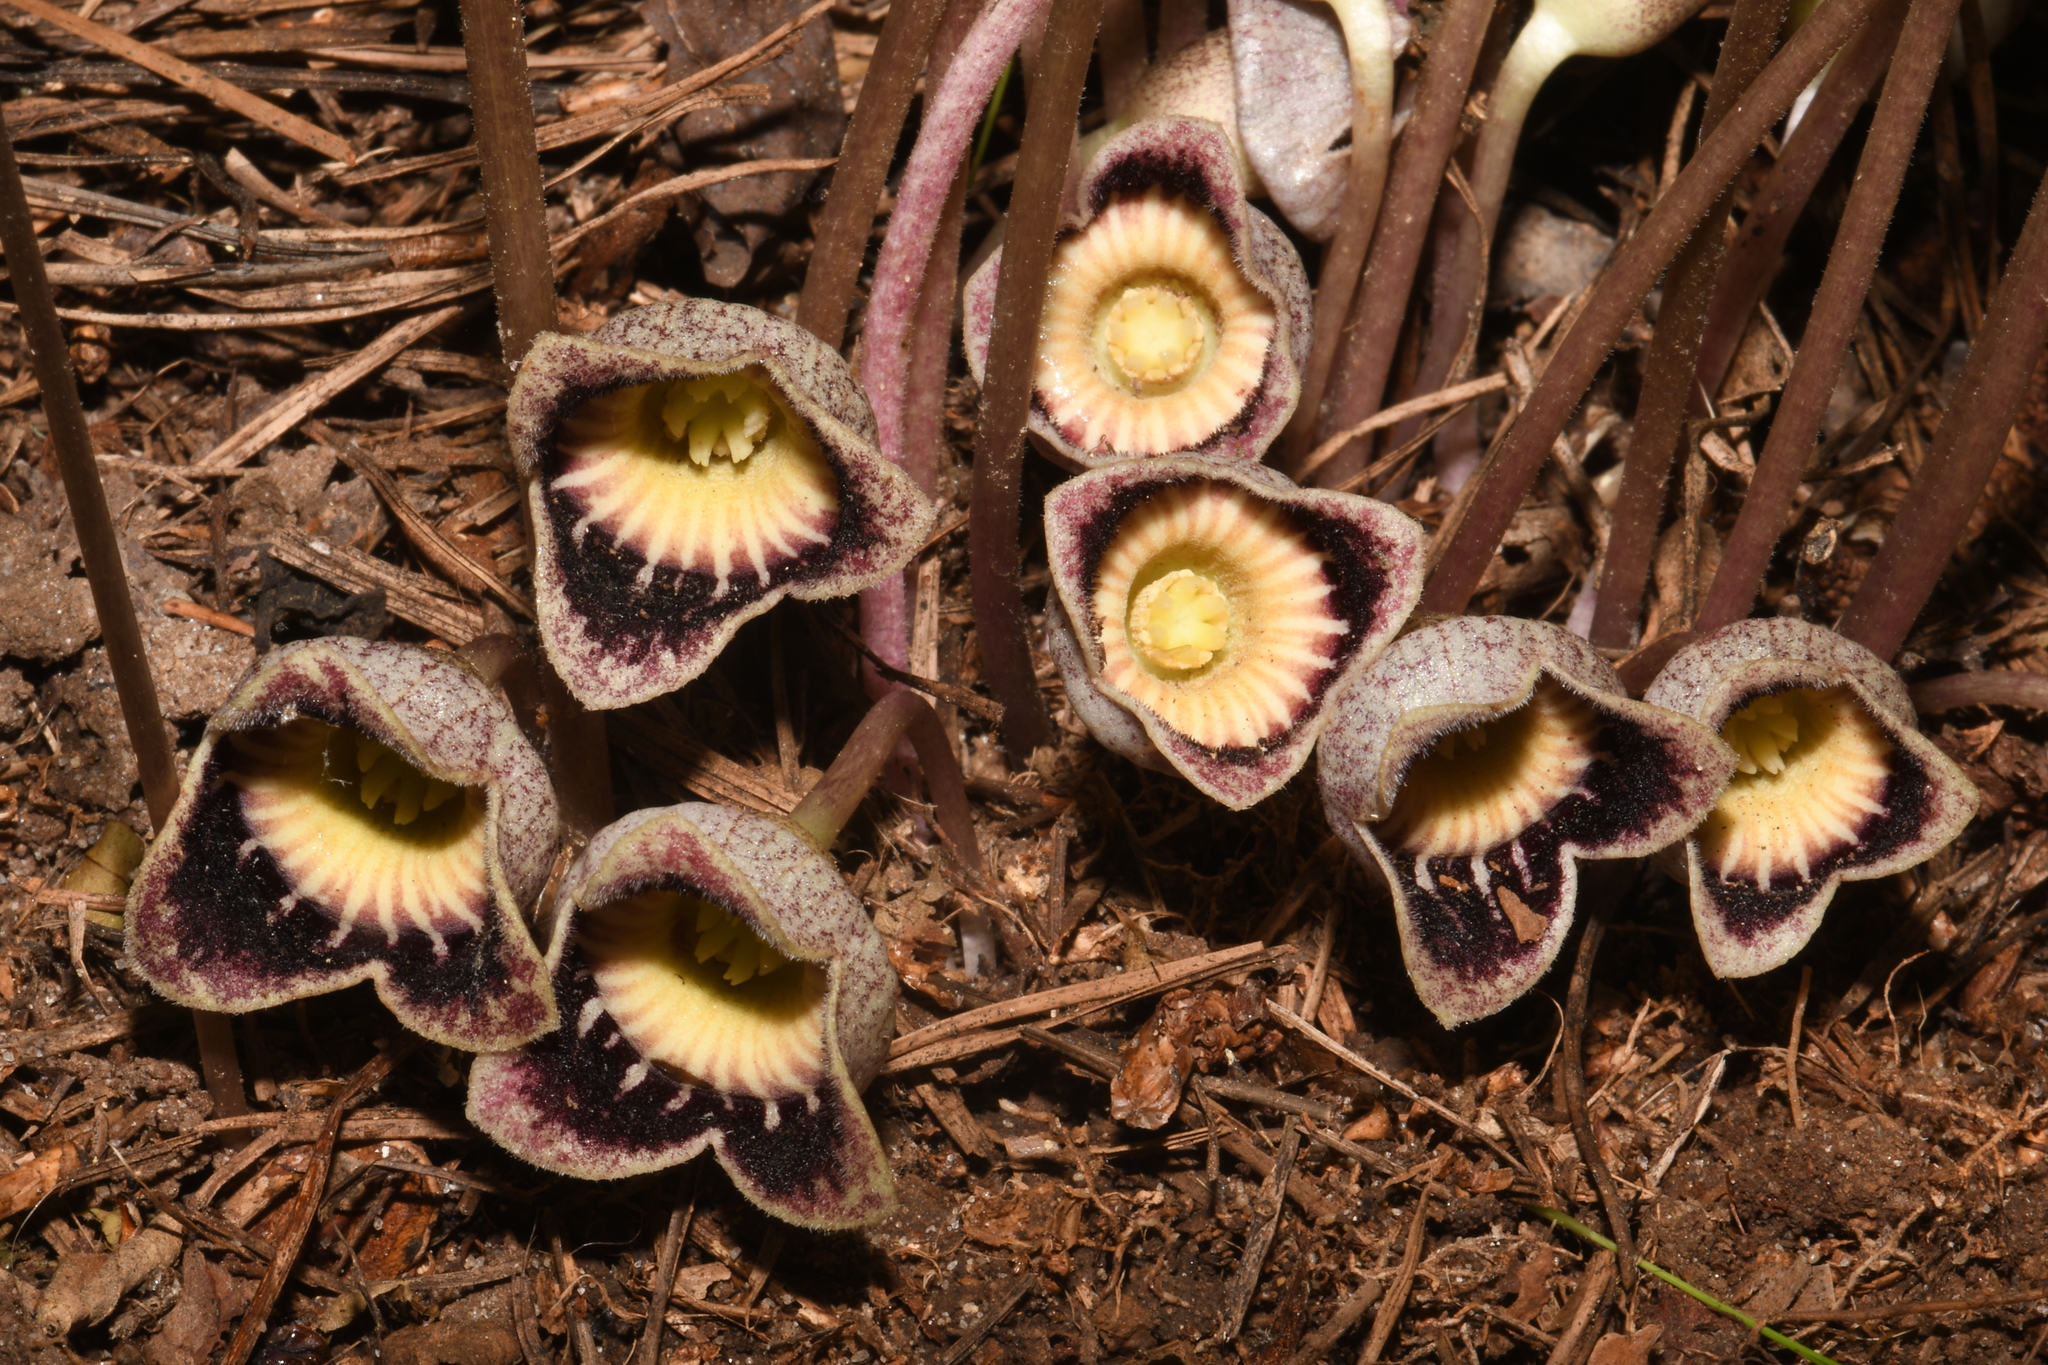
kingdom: Plantae
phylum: Tracheophyta
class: Magnoliopsida
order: Piperales
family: Aristolochiaceae
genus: Hexastylis
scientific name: Hexastylis speciosa
